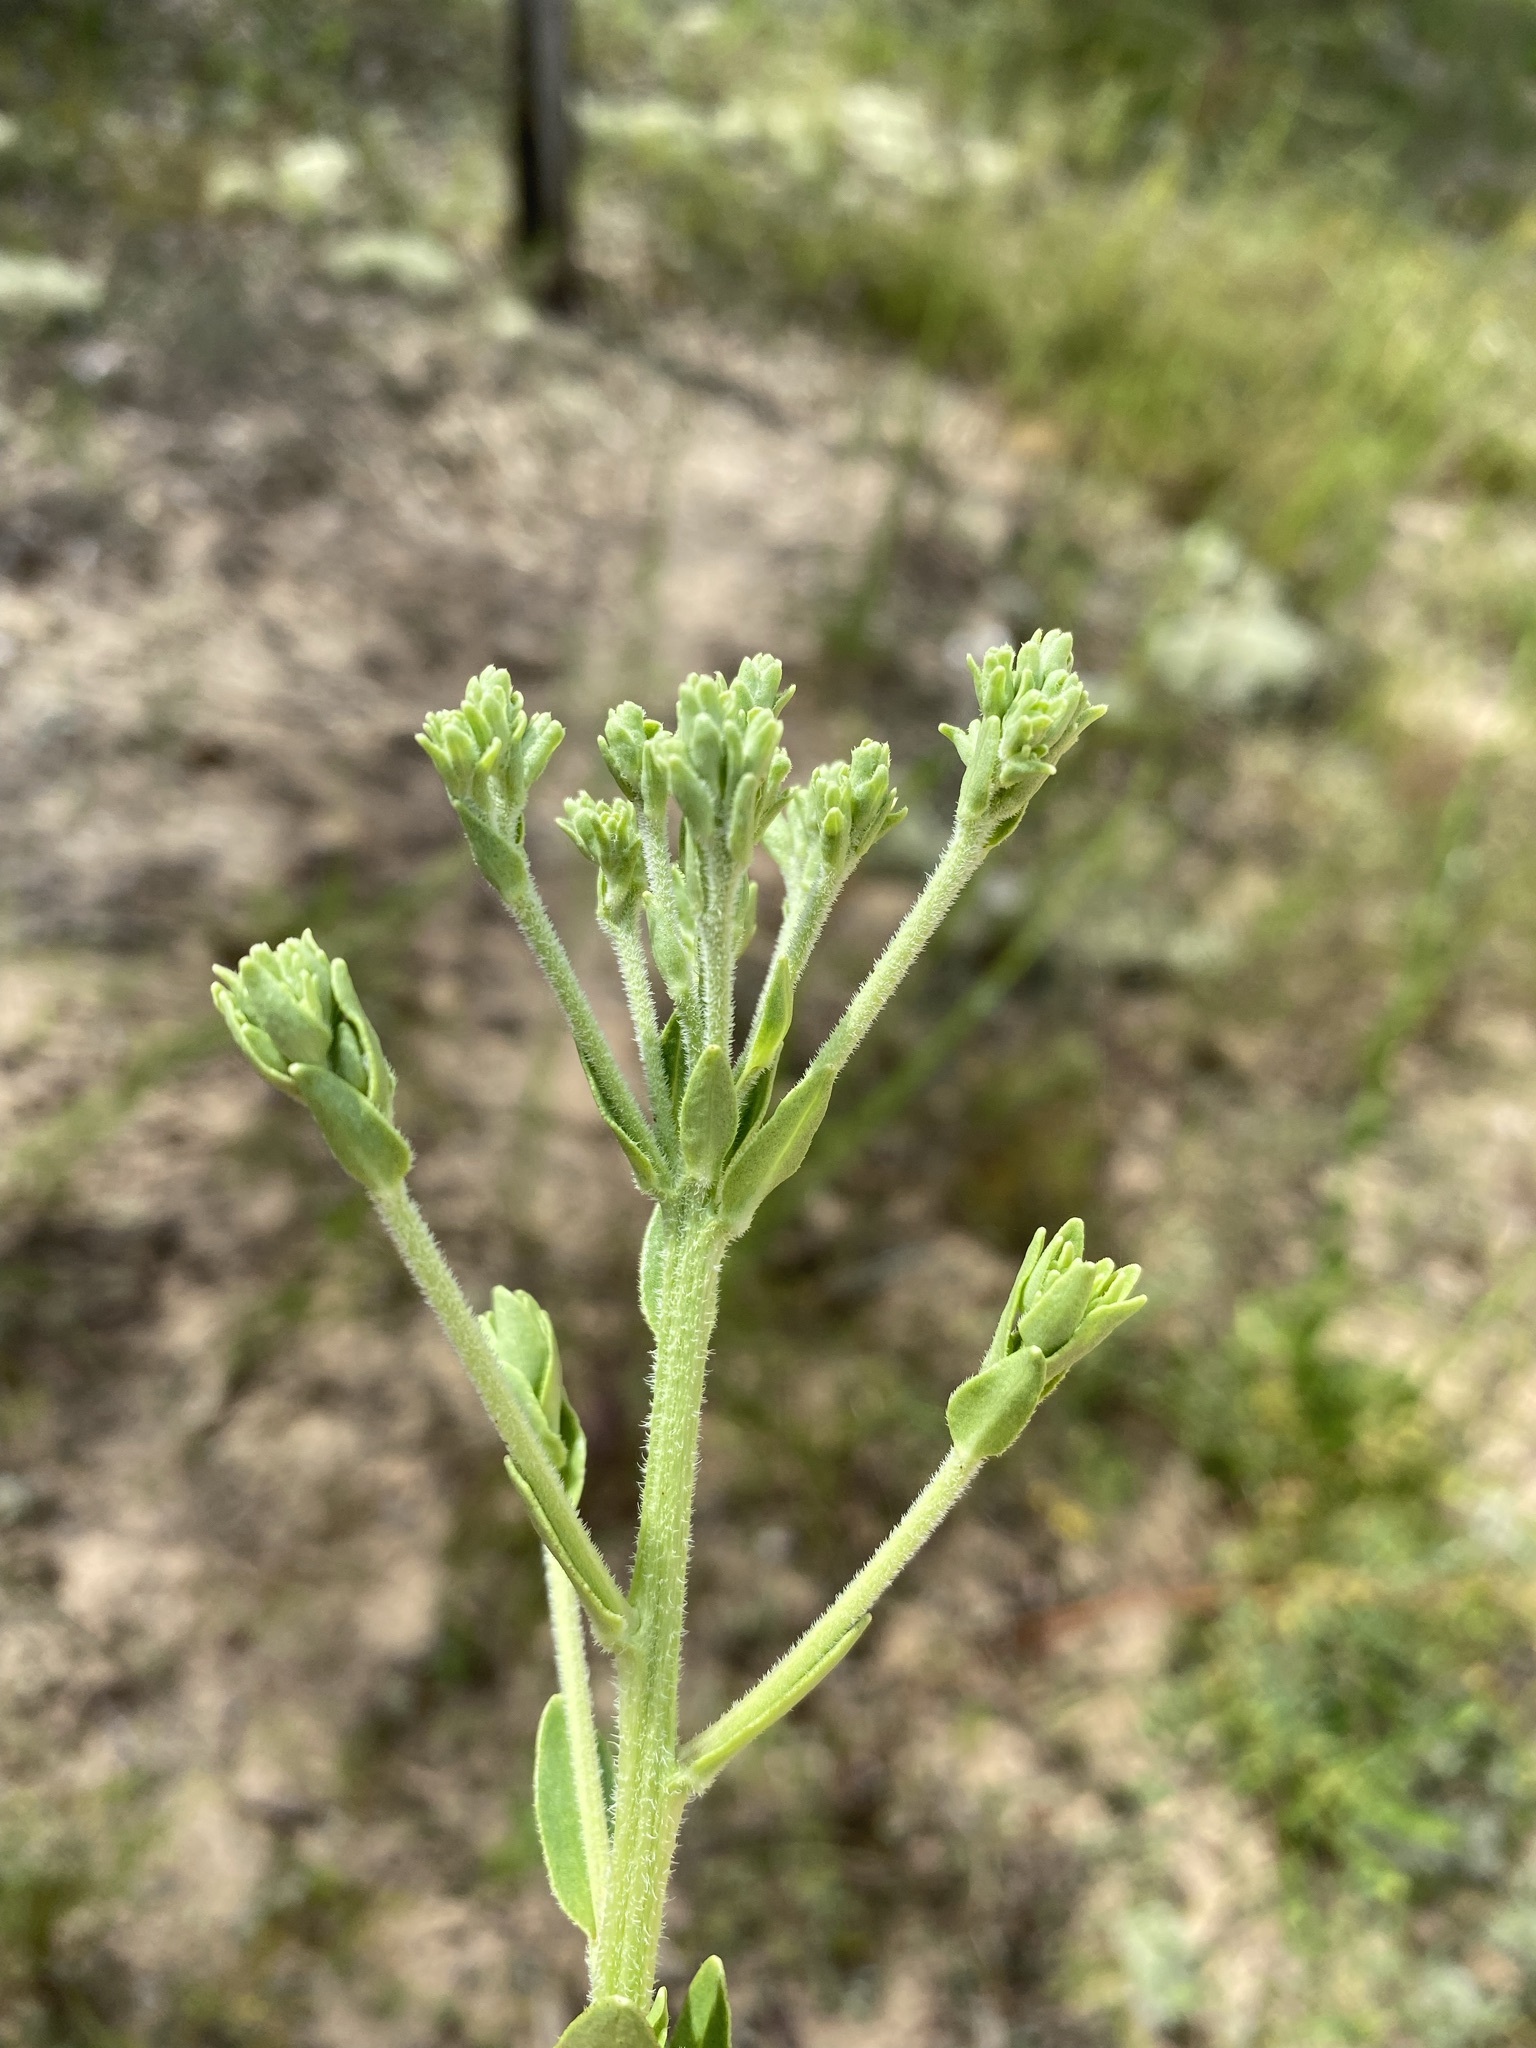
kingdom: Plantae
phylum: Tracheophyta
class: Magnoliopsida
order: Asterales
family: Asteraceae
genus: Carphephorus
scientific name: Carphephorus corymbosus
